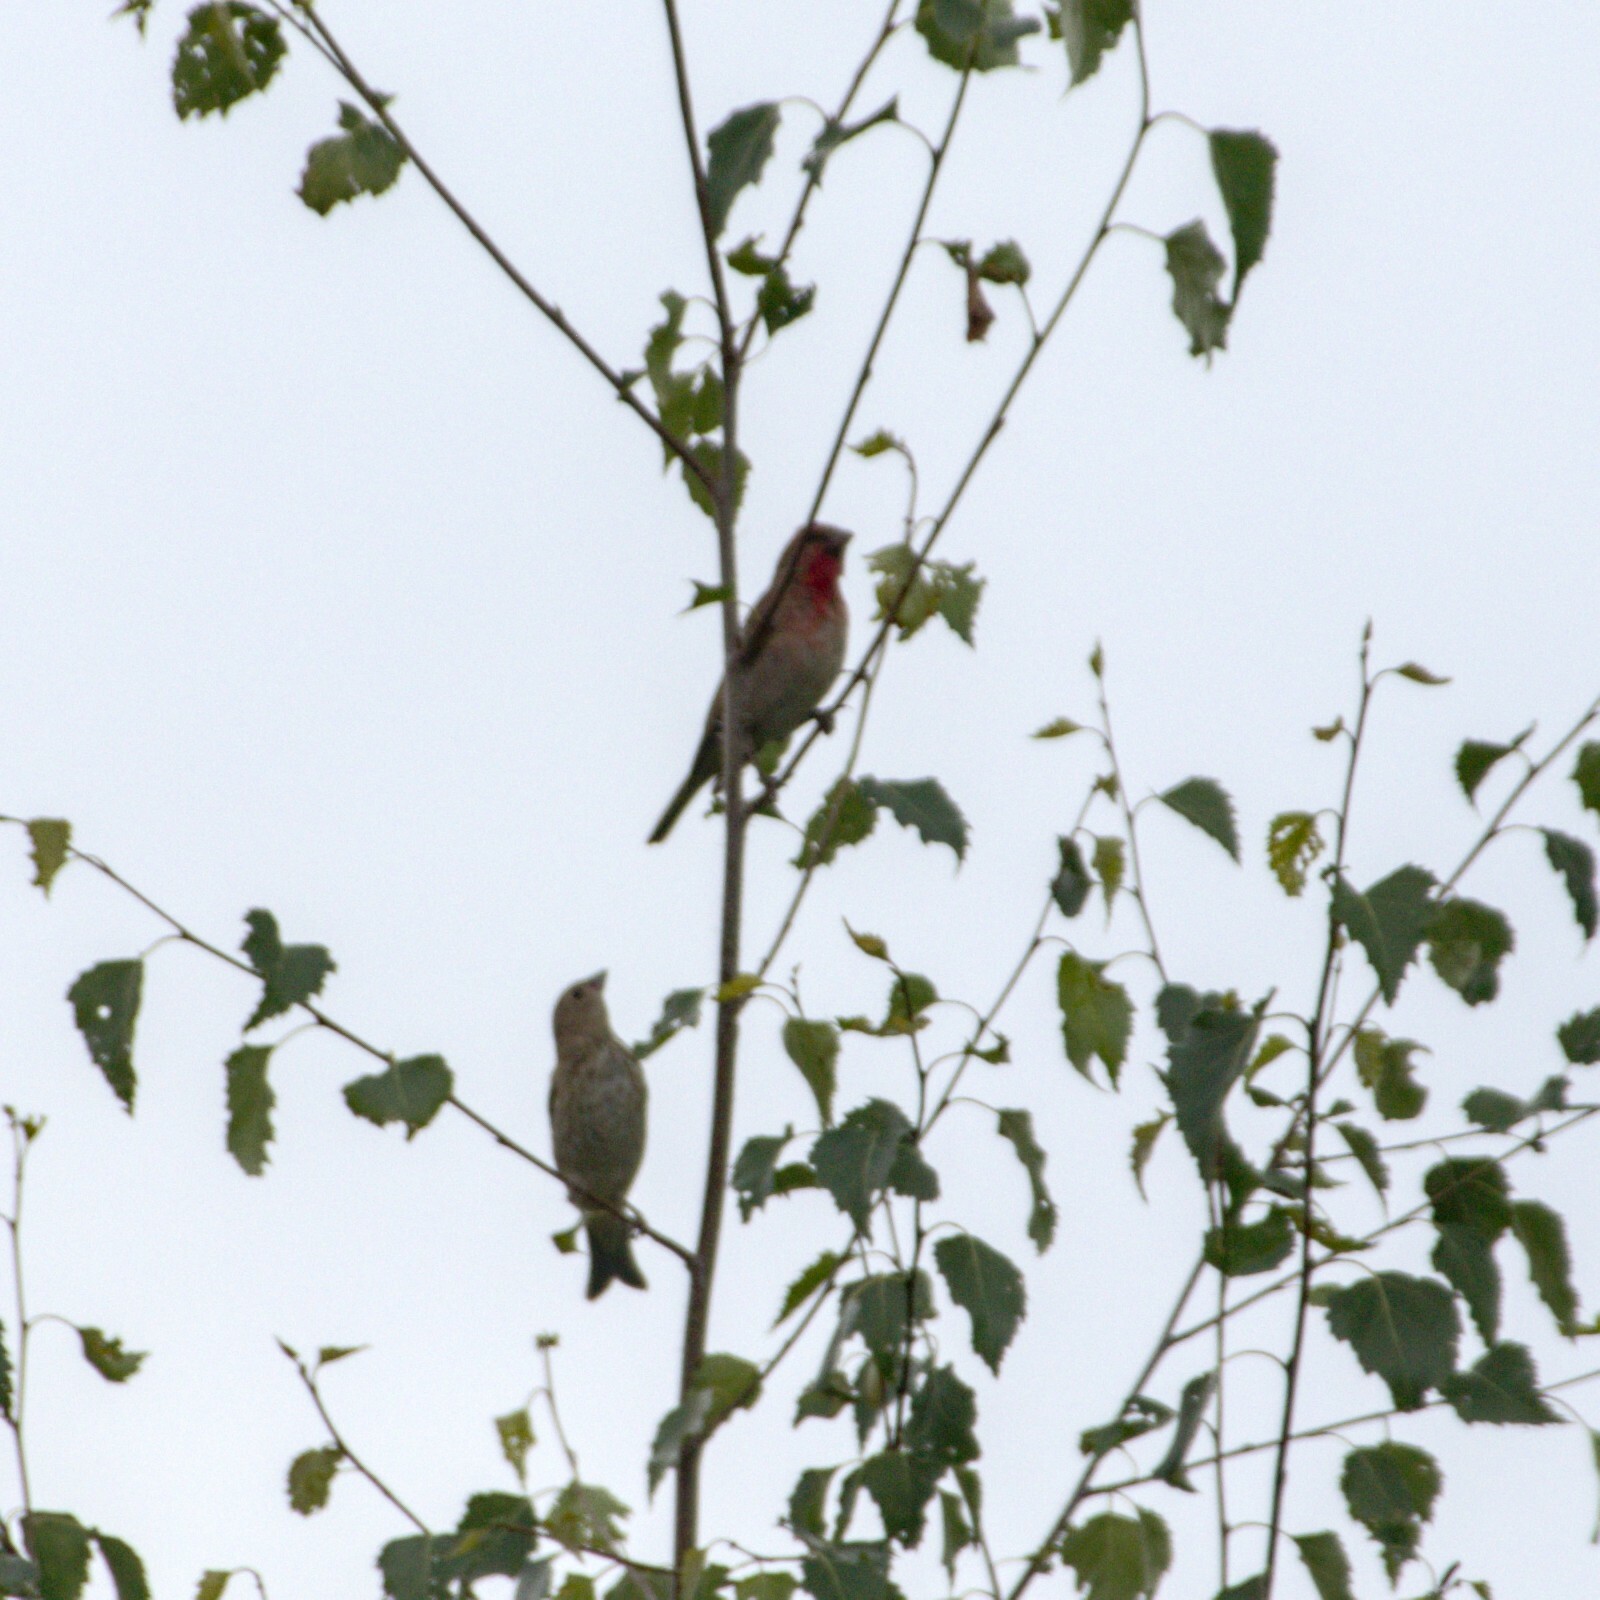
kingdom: Animalia
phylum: Chordata
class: Aves
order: Passeriformes
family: Fringillidae
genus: Carpodacus
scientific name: Carpodacus erythrinus
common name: Common rosefinch
